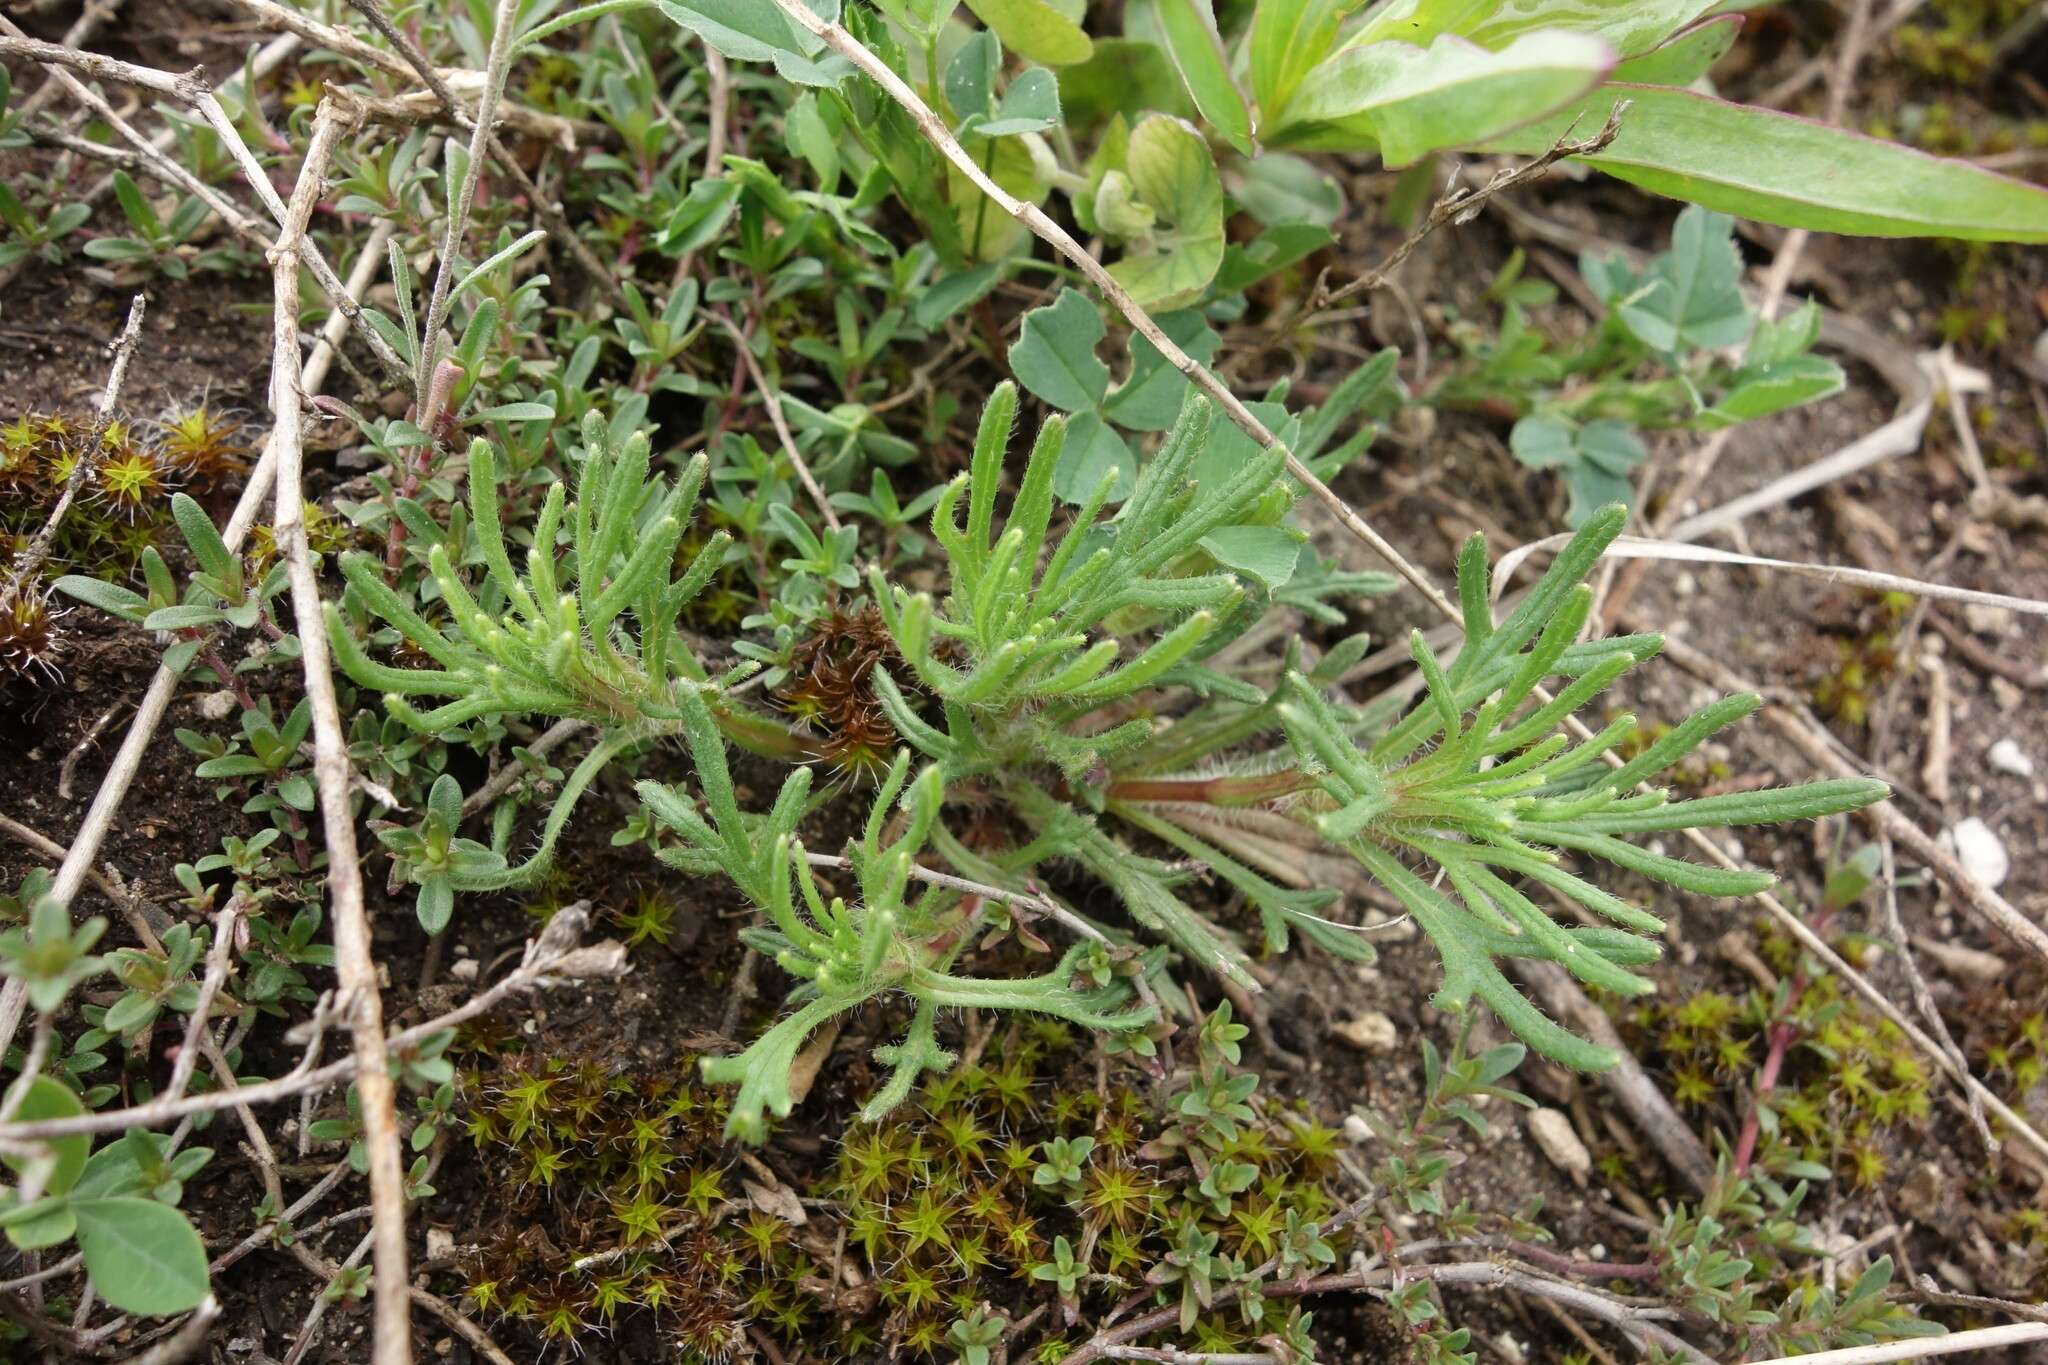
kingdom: Plantae
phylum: Tracheophyta
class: Magnoliopsida
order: Lamiales
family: Lamiaceae
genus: Ajuga
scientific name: Ajuga chamaepitys
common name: Ground-pine
